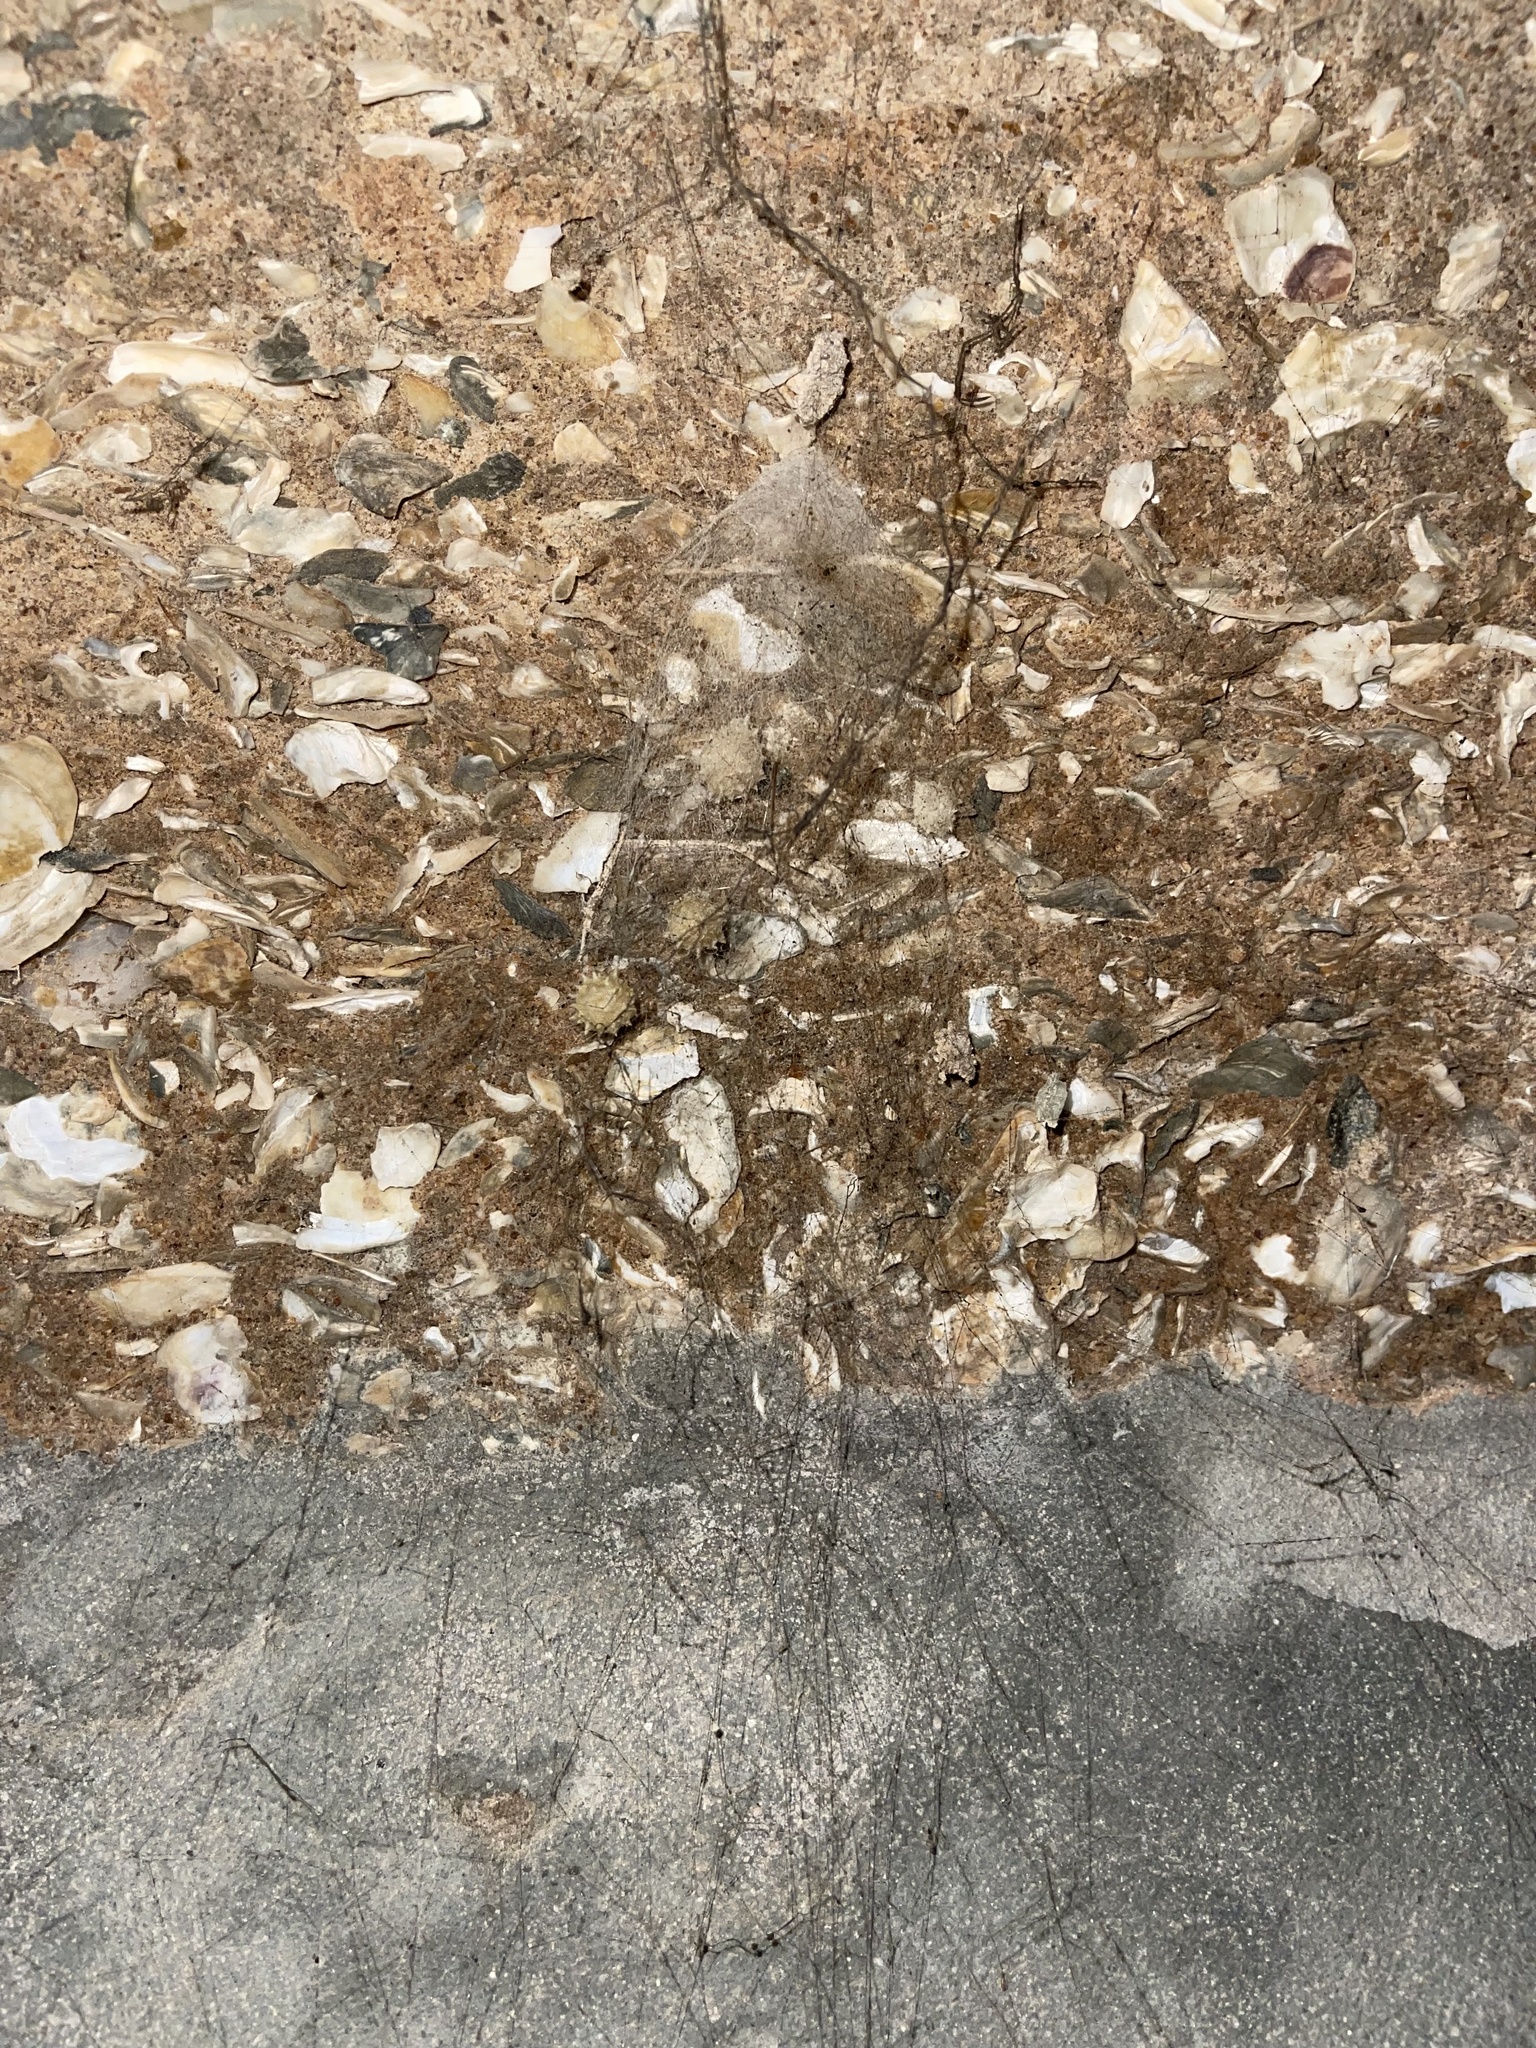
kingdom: Animalia
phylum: Arthropoda
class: Arachnida
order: Araneae
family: Theridiidae
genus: Latrodectus
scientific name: Latrodectus geometricus
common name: Brown widow spider
